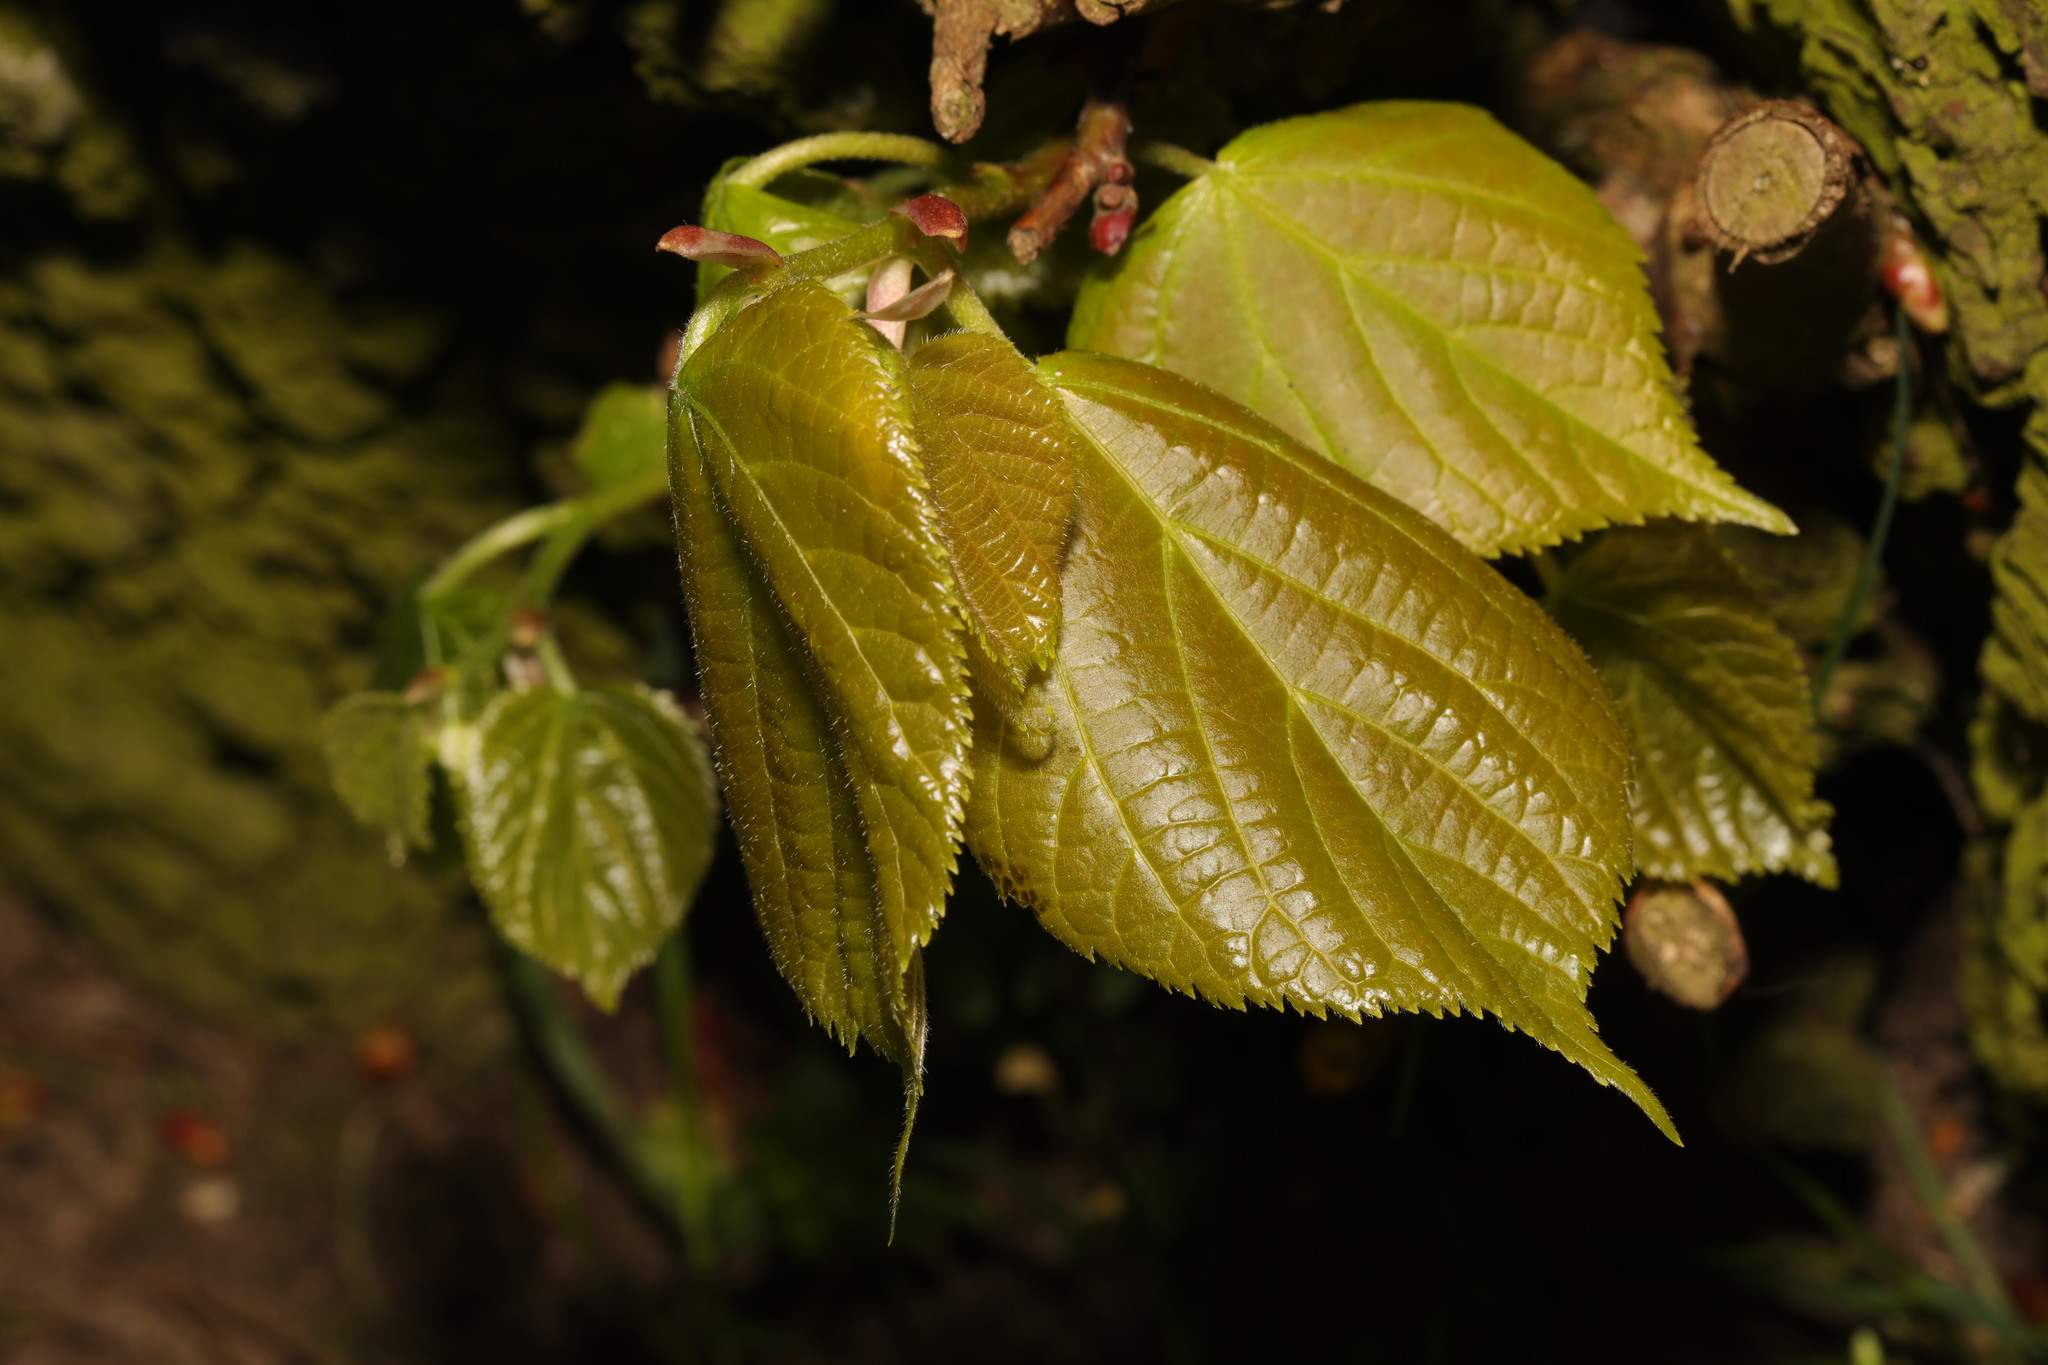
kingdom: Plantae
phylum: Tracheophyta
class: Magnoliopsida
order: Malvales
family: Malvaceae
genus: Tilia
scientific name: Tilia europaea
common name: European linden
